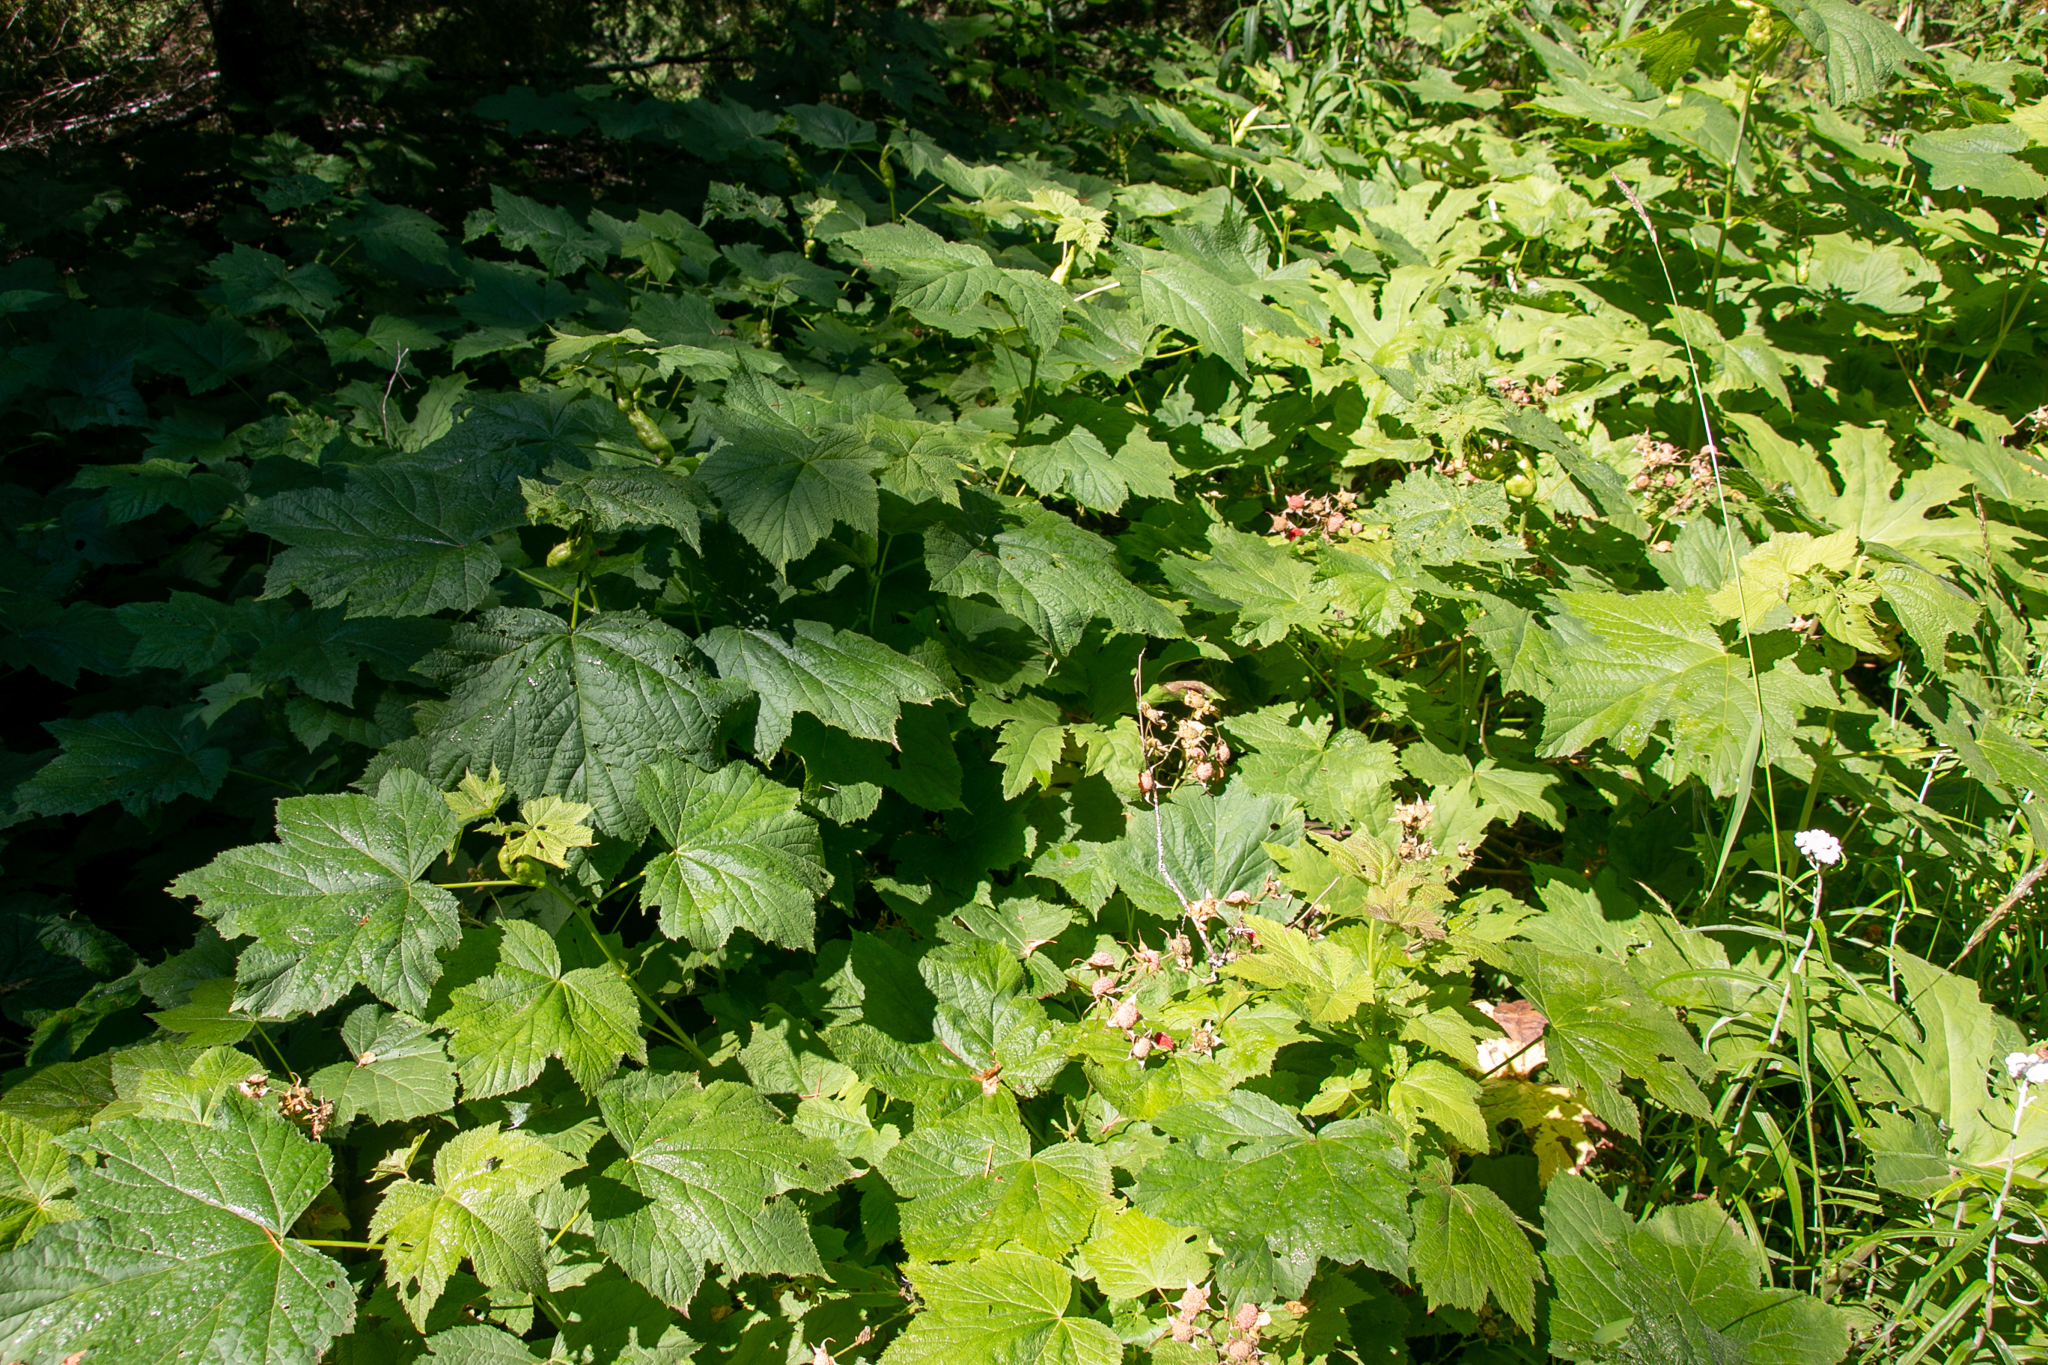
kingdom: Plantae
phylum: Tracheophyta
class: Magnoliopsida
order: Rosales
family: Rosaceae
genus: Rubus
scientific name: Rubus parviflorus
